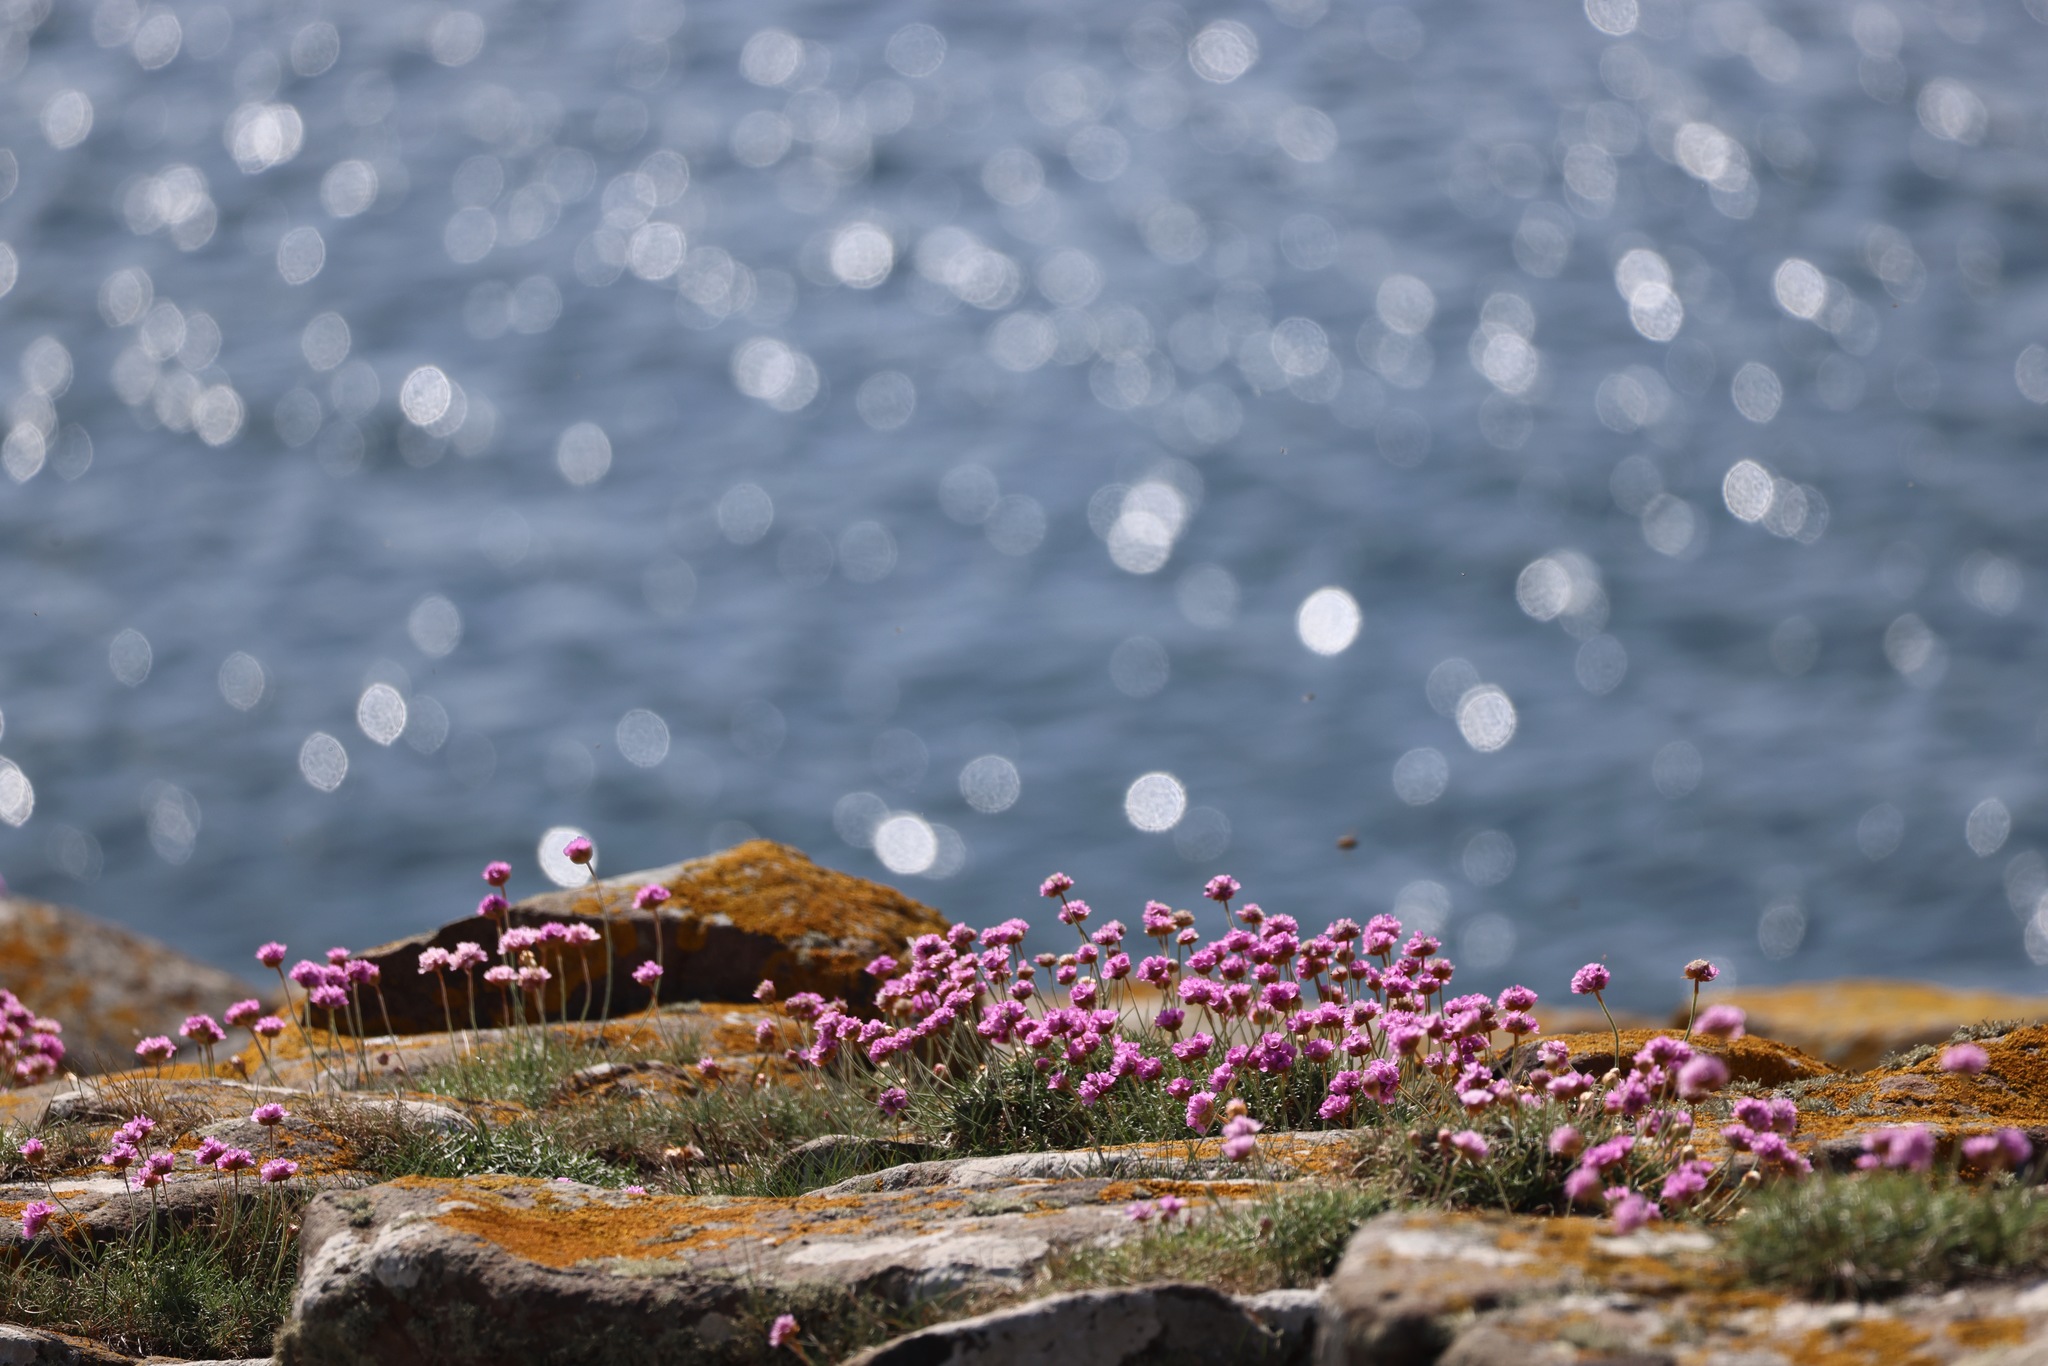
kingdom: Plantae
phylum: Tracheophyta
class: Magnoliopsida
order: Caryophyllales
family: Plumbaginaceae
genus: Armeria
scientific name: Armeria maritima
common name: Thrift
